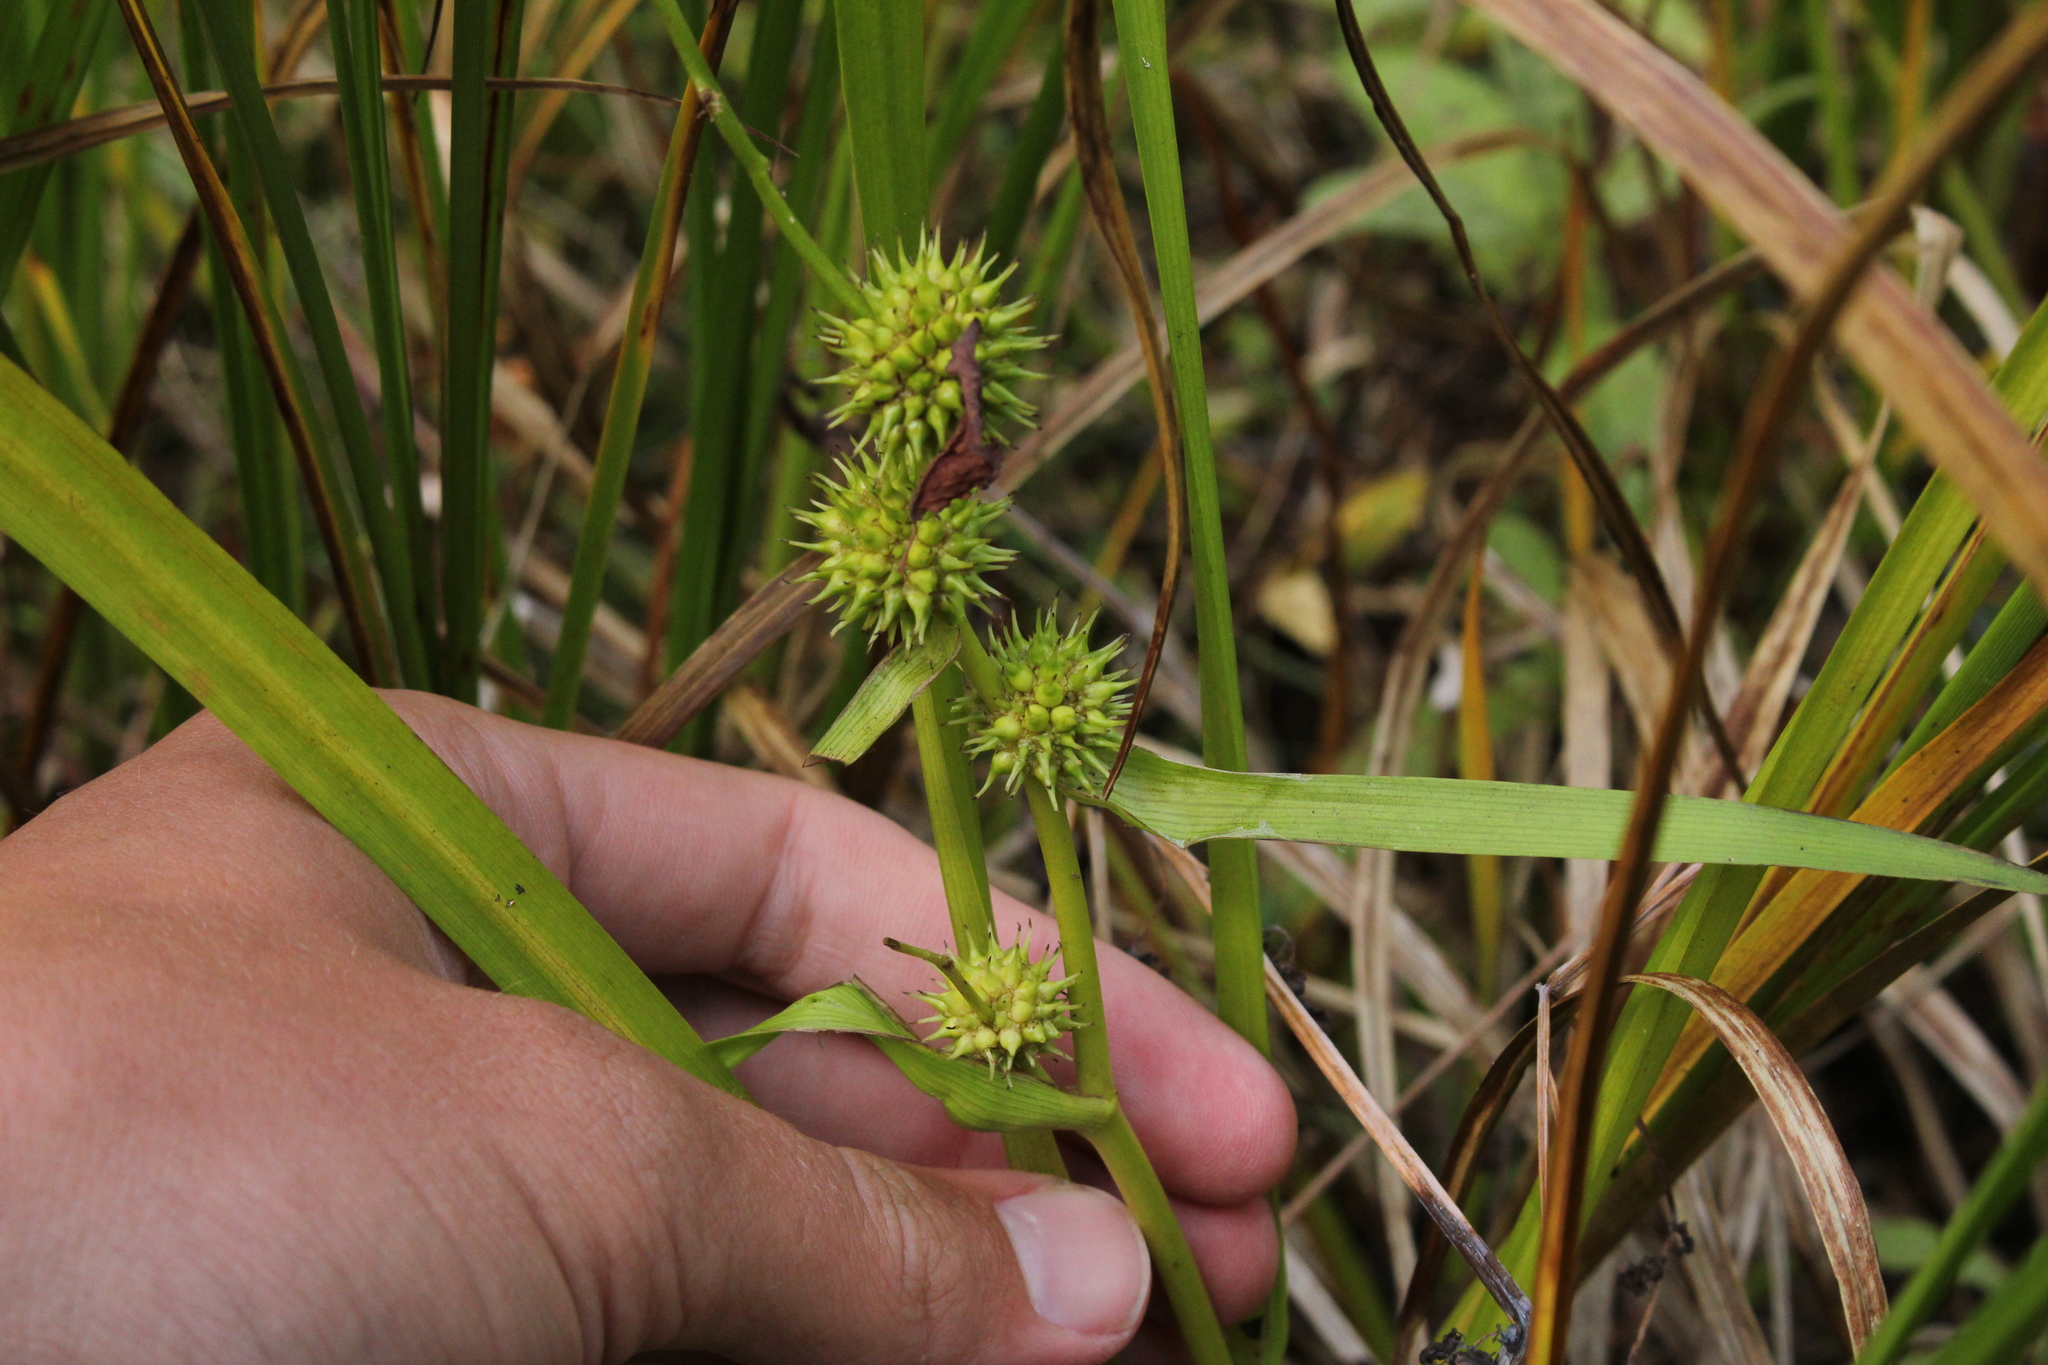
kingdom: Plantae
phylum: Tracheophyta
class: Liliopsida
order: Poales
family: Typhaceae
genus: Sparganium
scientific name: Sparganium emersum
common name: Unbranched bur-reed
